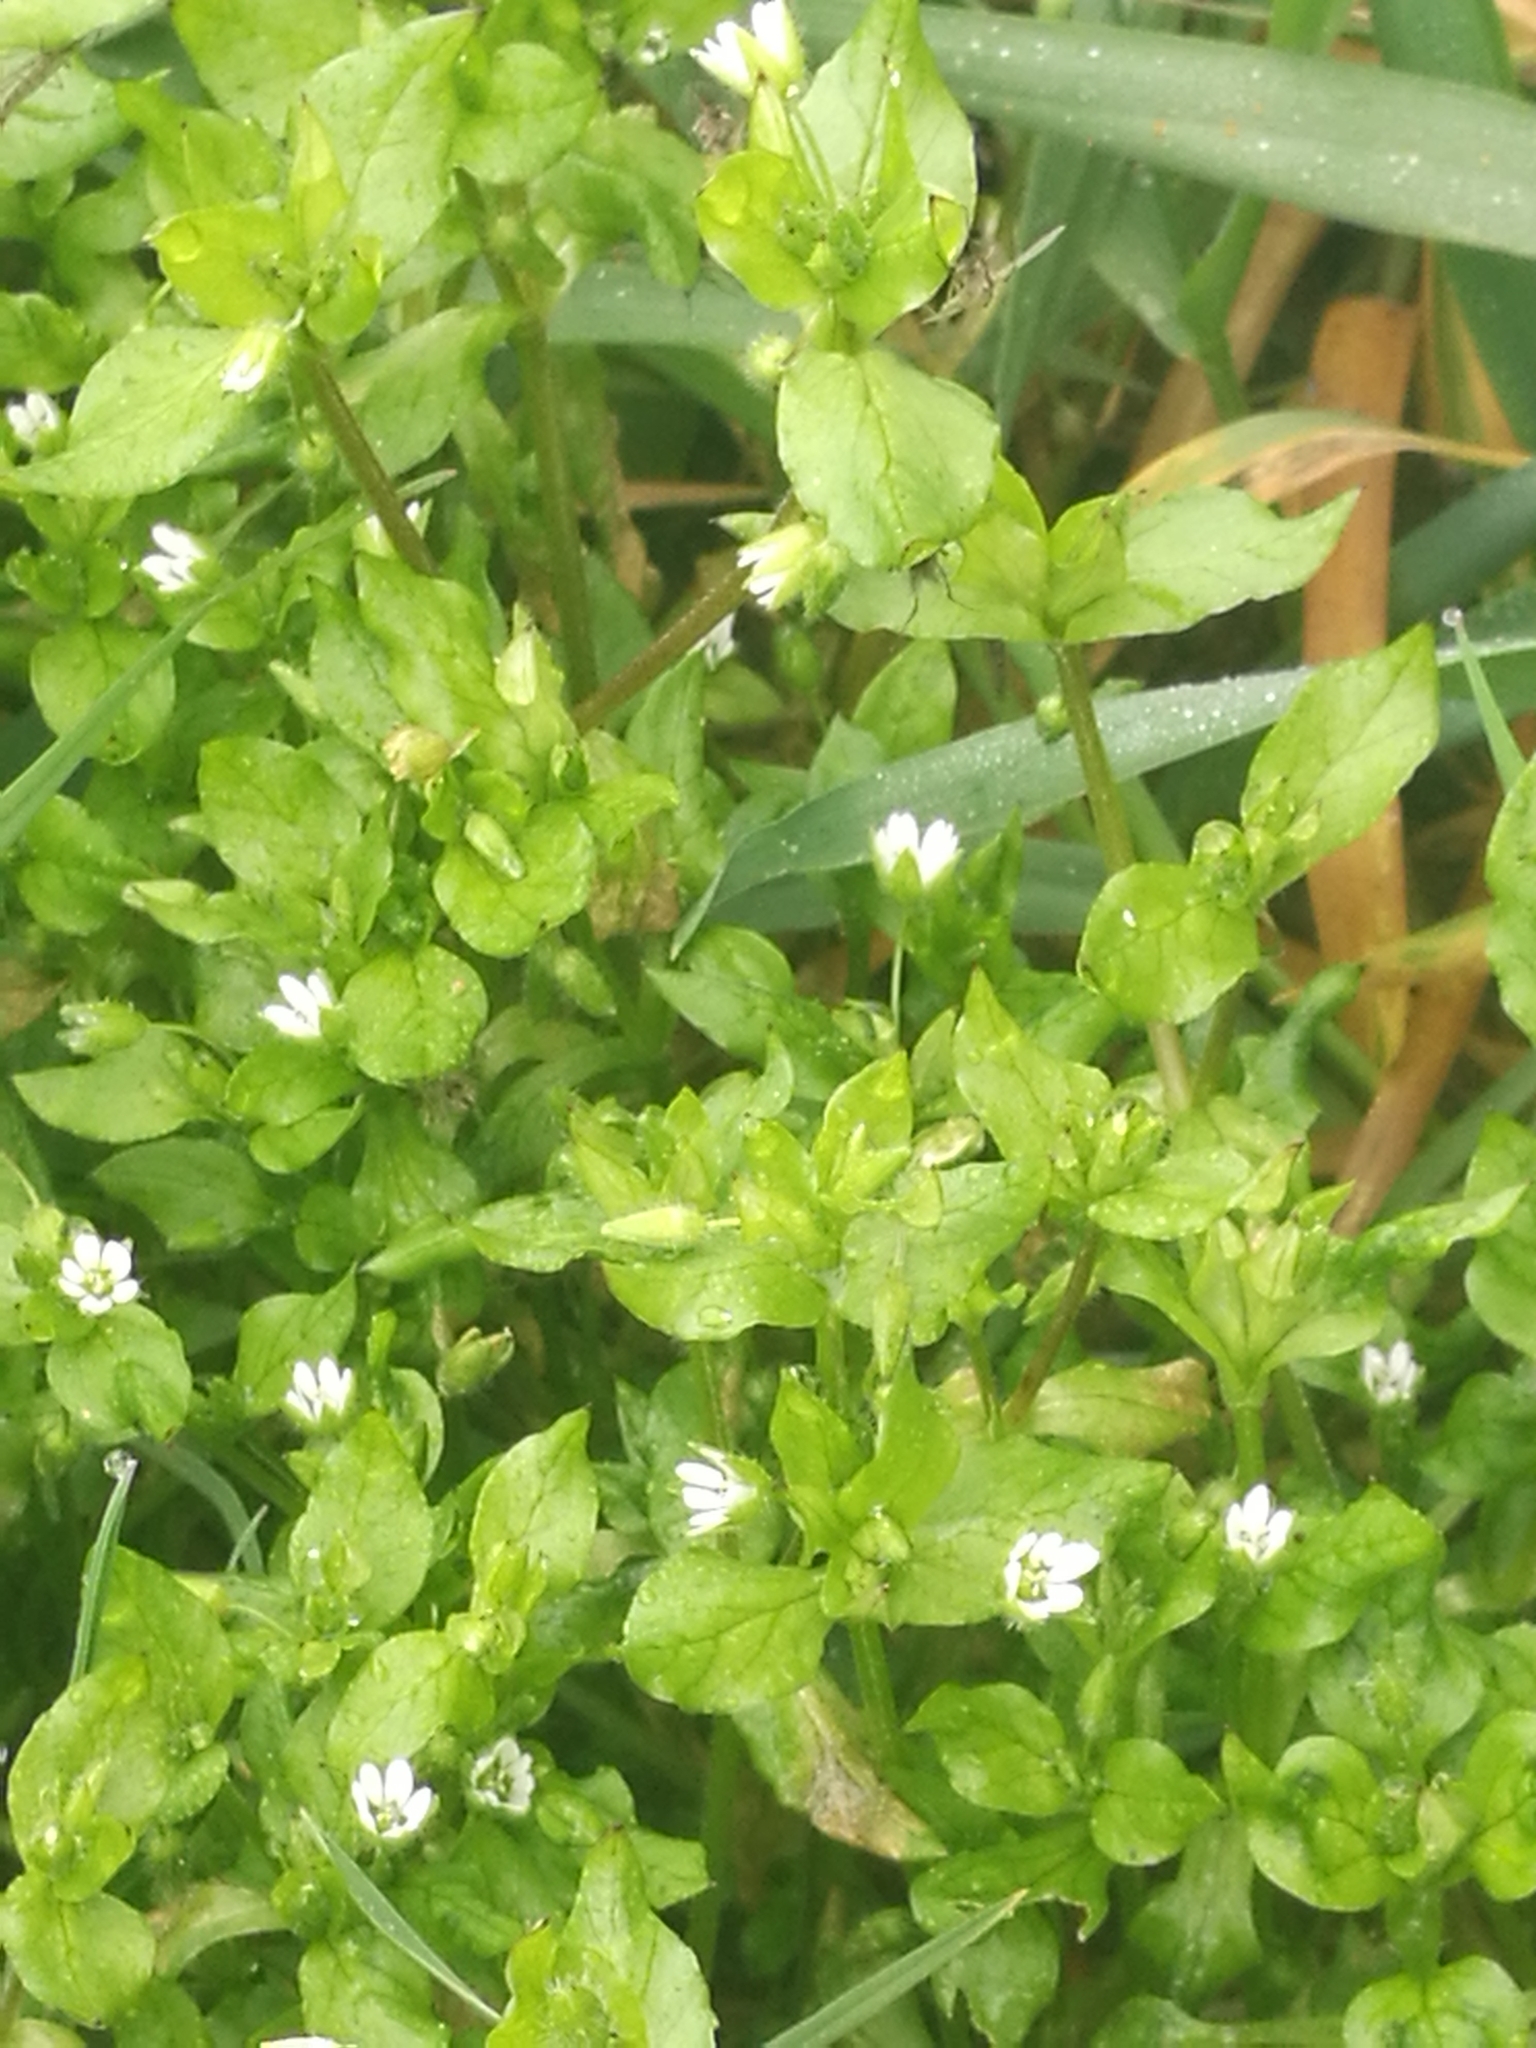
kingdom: Plantae
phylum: Tracheophyta
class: Magnoliopsida
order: Caryophyllales
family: Caryophyllaceae
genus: Stellaria
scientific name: Stellaria media
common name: Common chickweed
